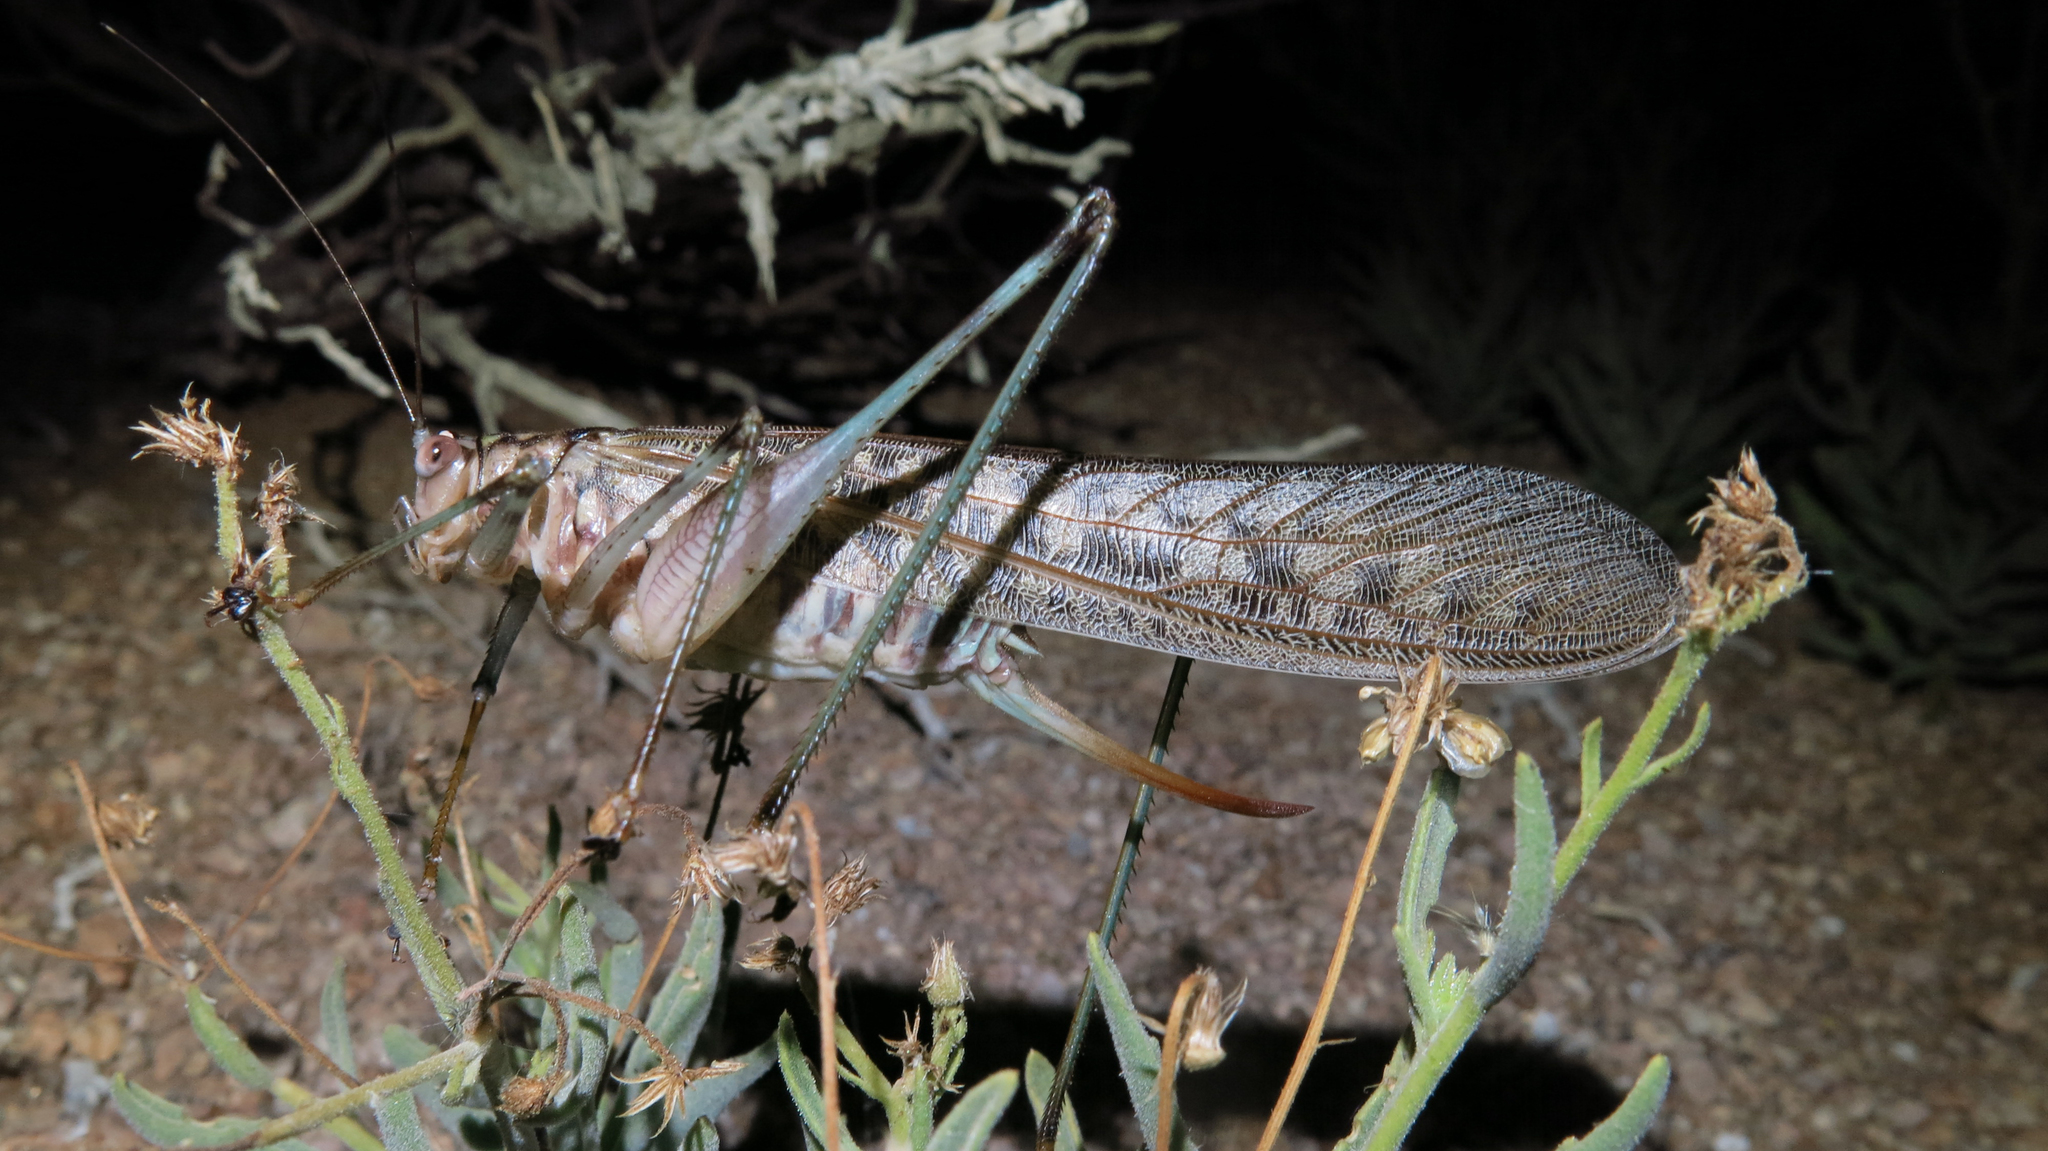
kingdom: Animalia
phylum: Arthropoda
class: Insecta
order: Orthoptera
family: Tettigoniidae
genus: Pseudosaga
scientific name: Pseudosaga maculata
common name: Lace-winged katydid
